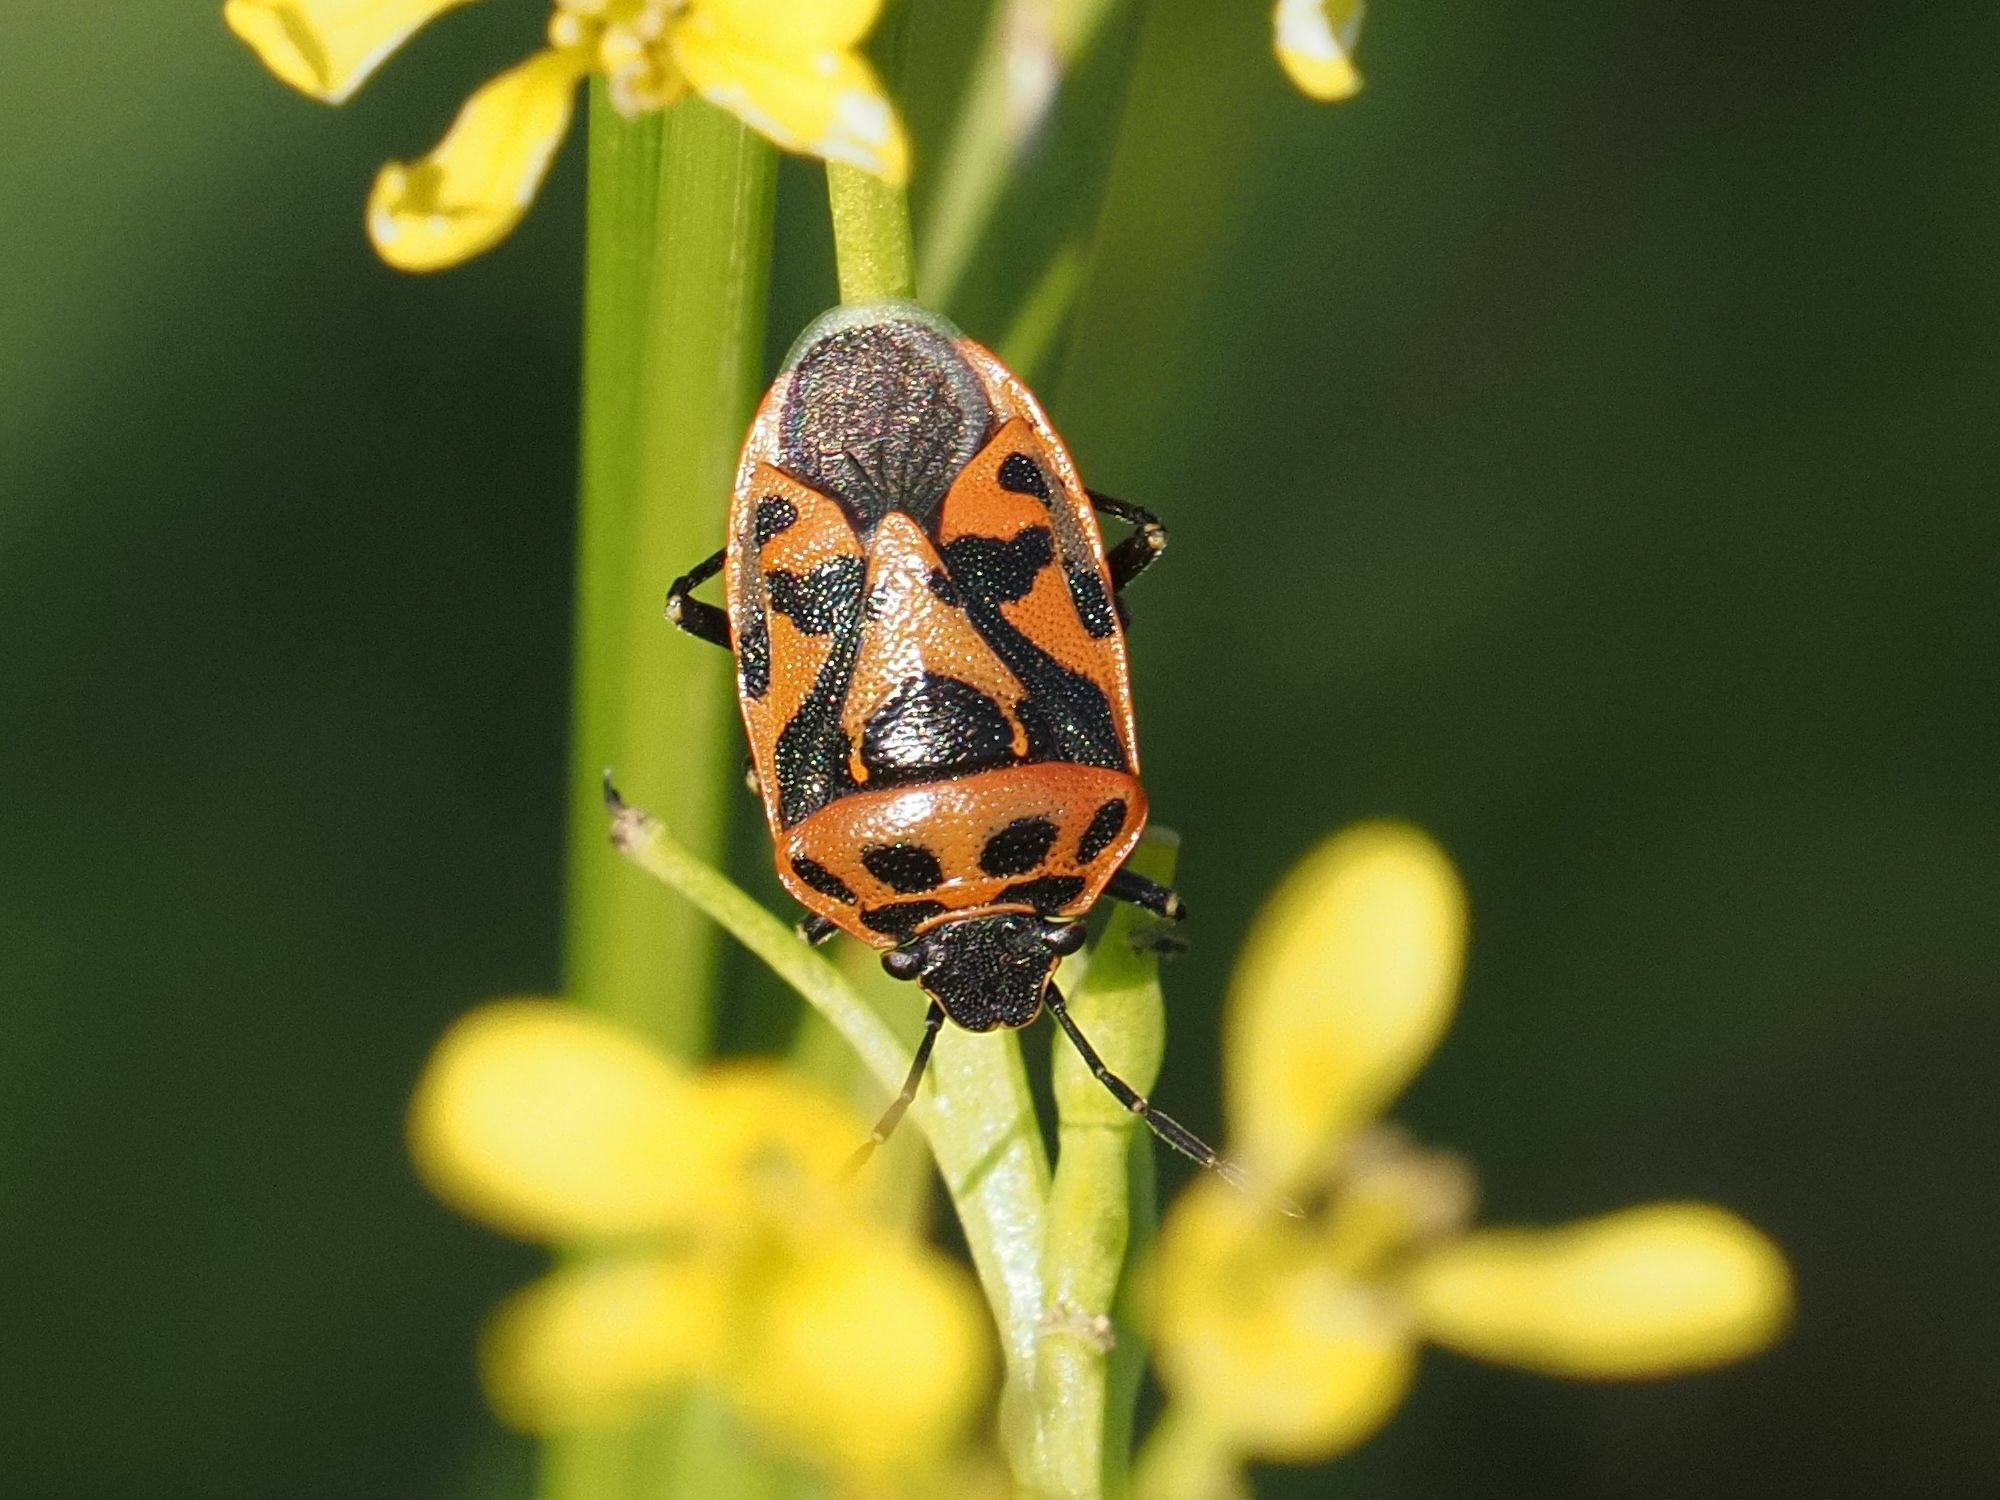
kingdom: Animalia
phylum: Arthropoda
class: Insecta
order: Hemiptera
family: Pentatomidae
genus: Eurydema
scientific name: Eurydema ornata
